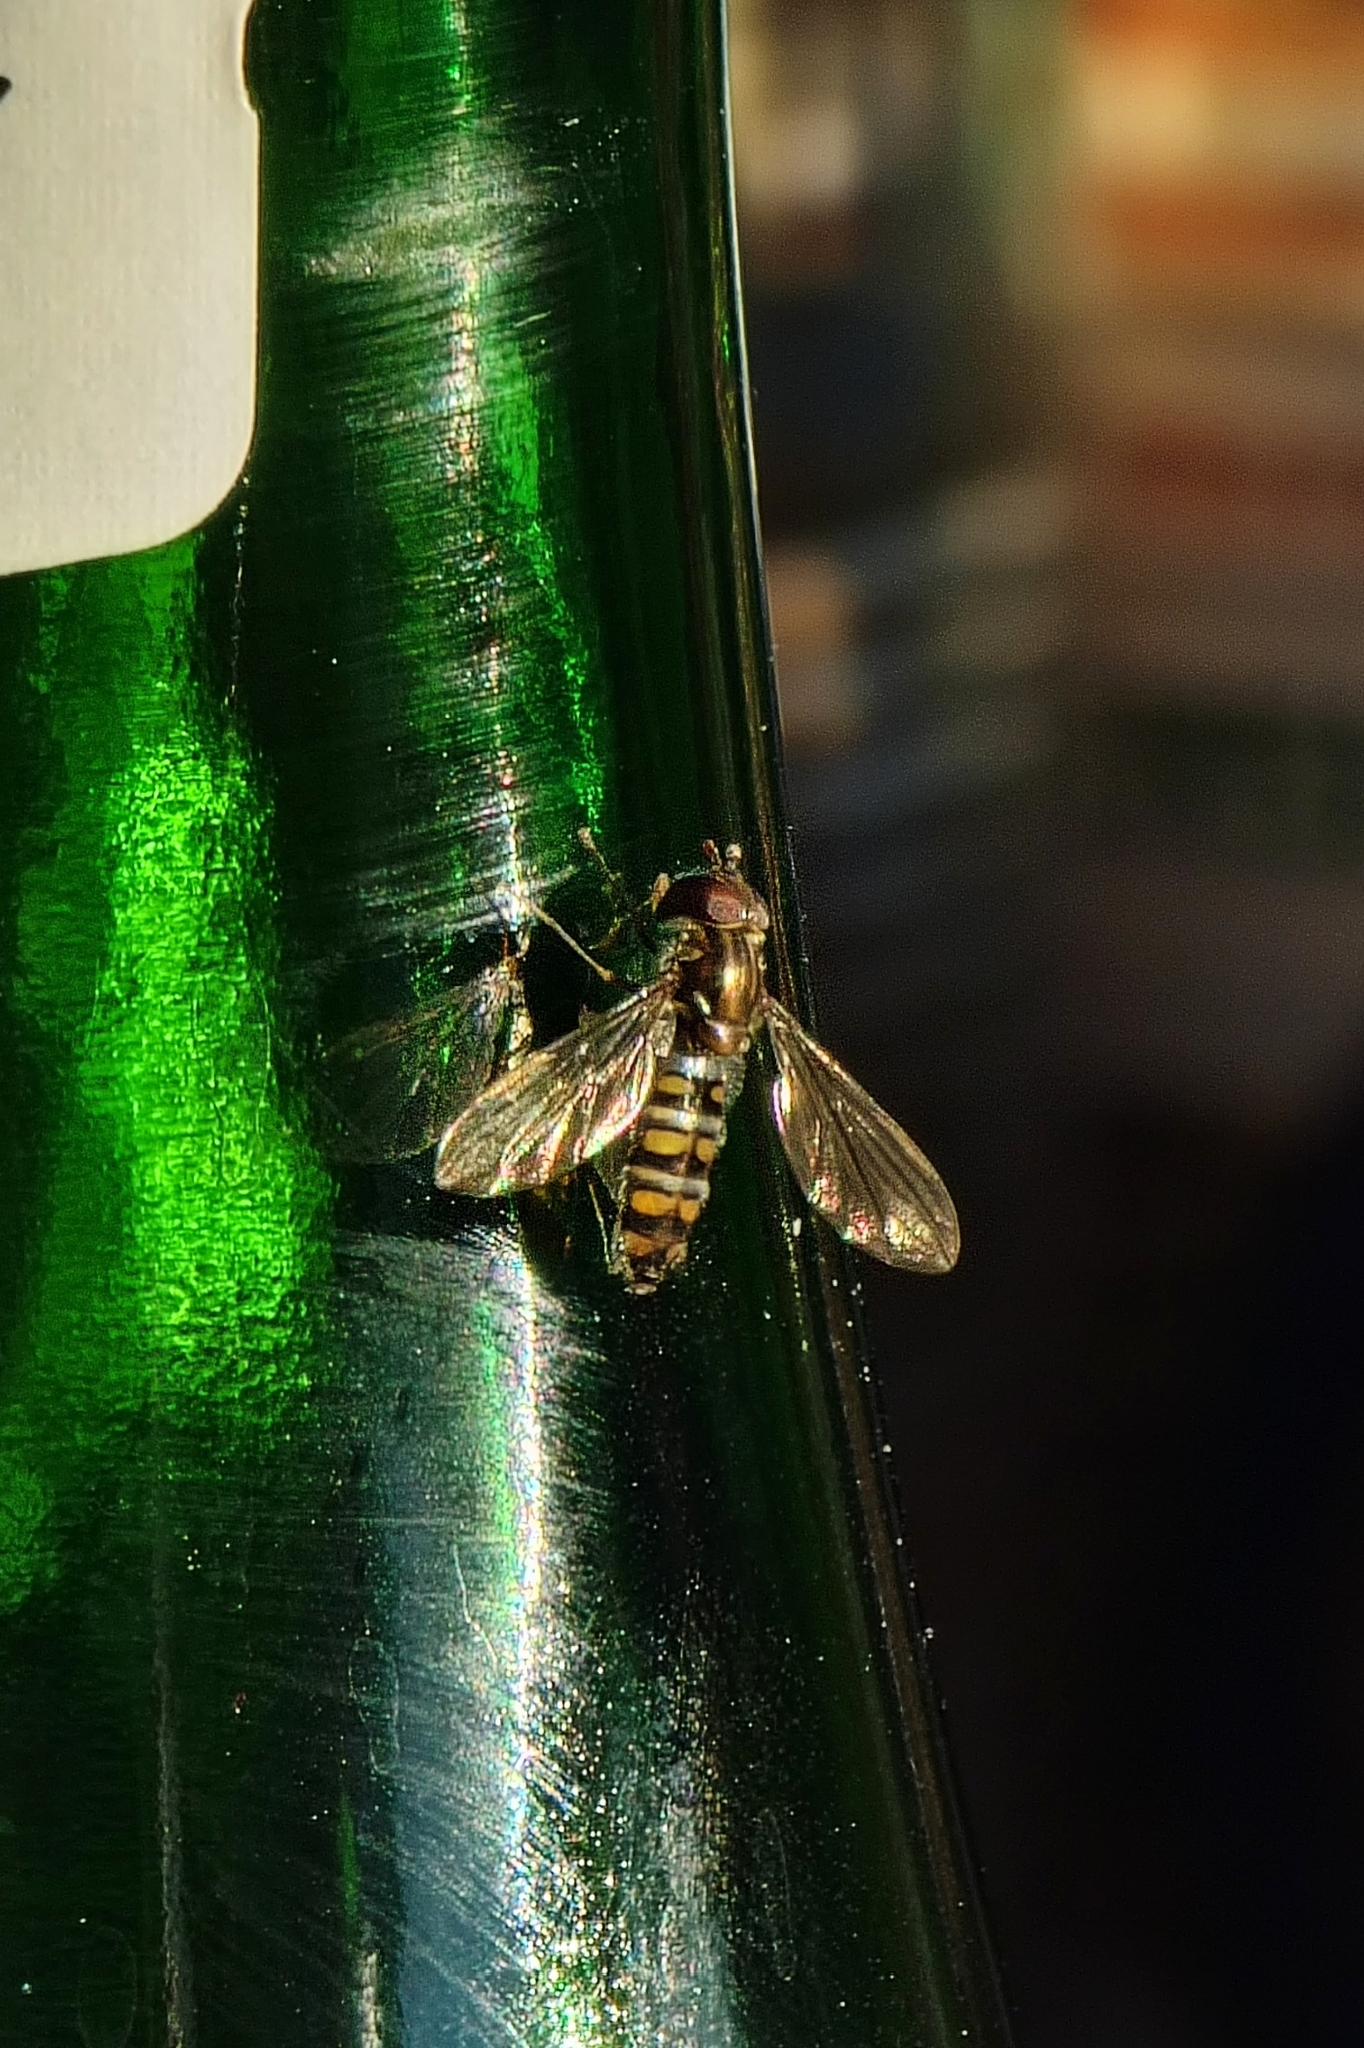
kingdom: Animalia
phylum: Arthropoda
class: Insecta
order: Diptera
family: Syrphidae
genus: Episyrphus
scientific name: Episyrphus balteatus
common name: Marmalade hoverfly
